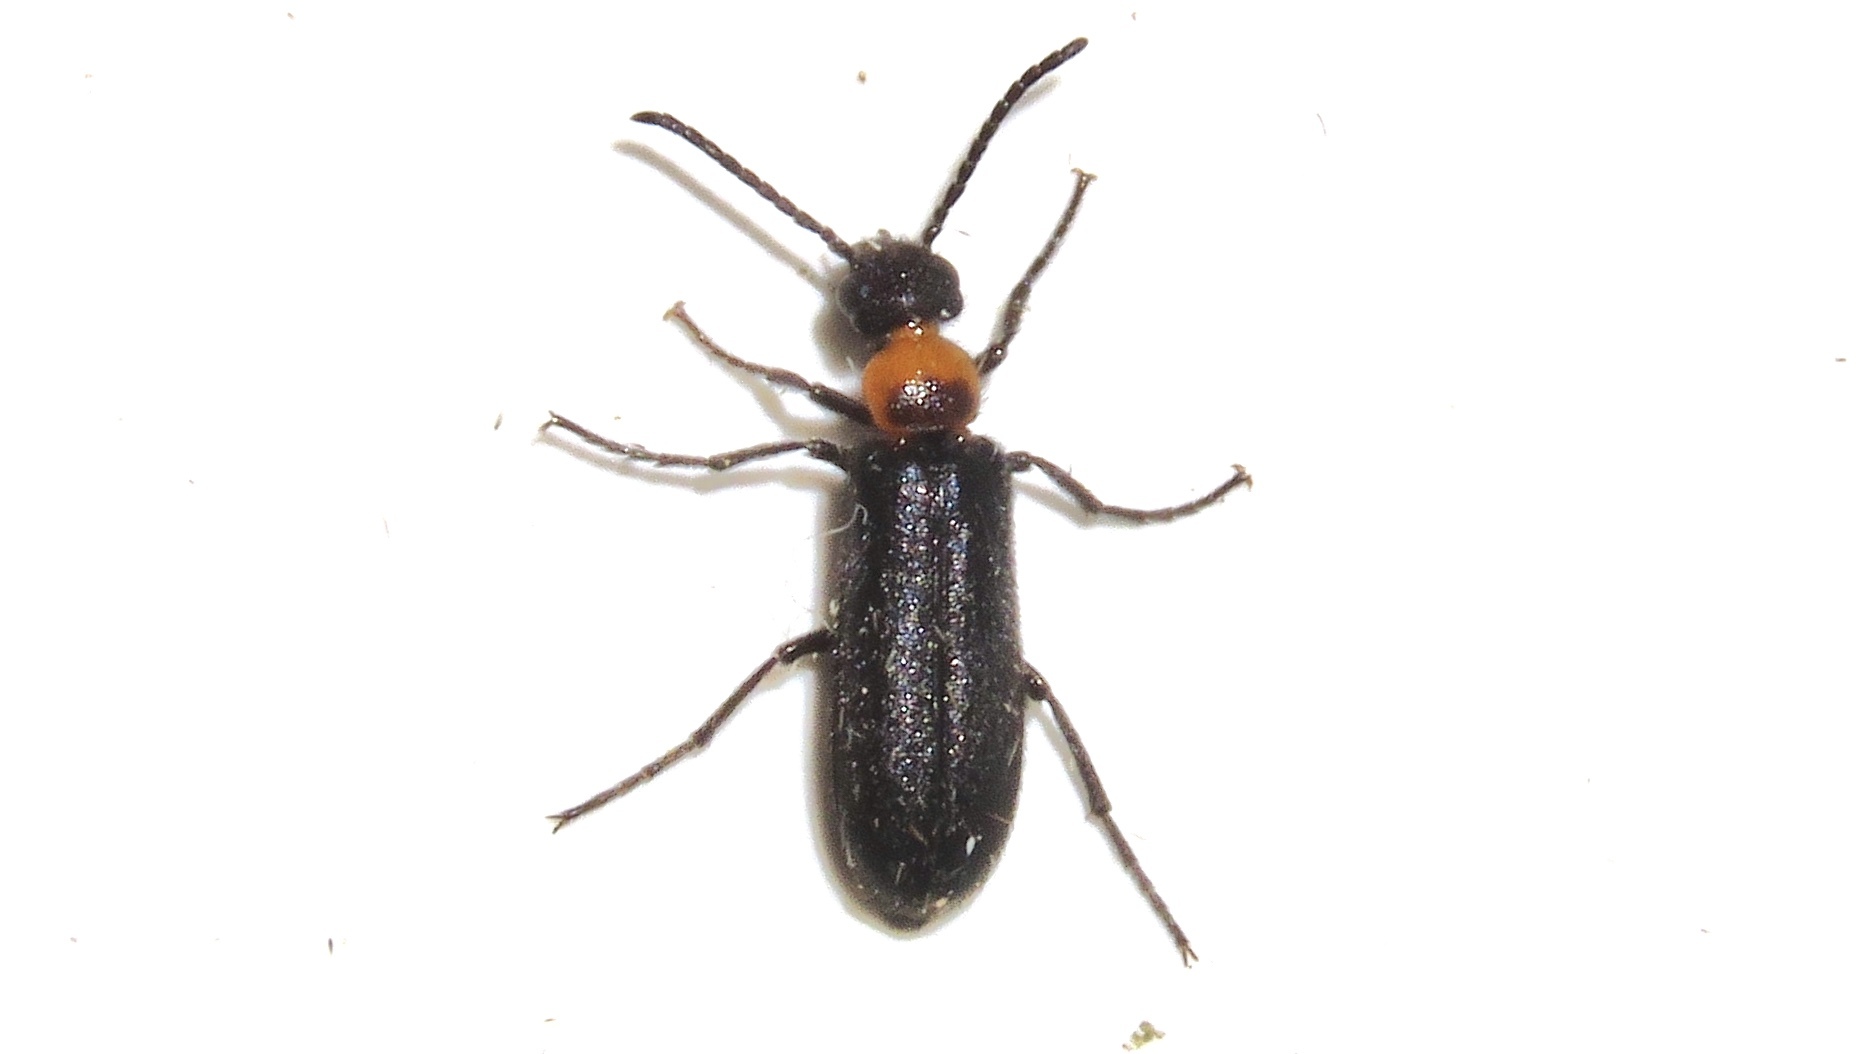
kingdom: Animalia
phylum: Arthropoda
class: Insecta
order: Coleoptera
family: Meloidae
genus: Nemognatha
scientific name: Nemognatha nemorensis
